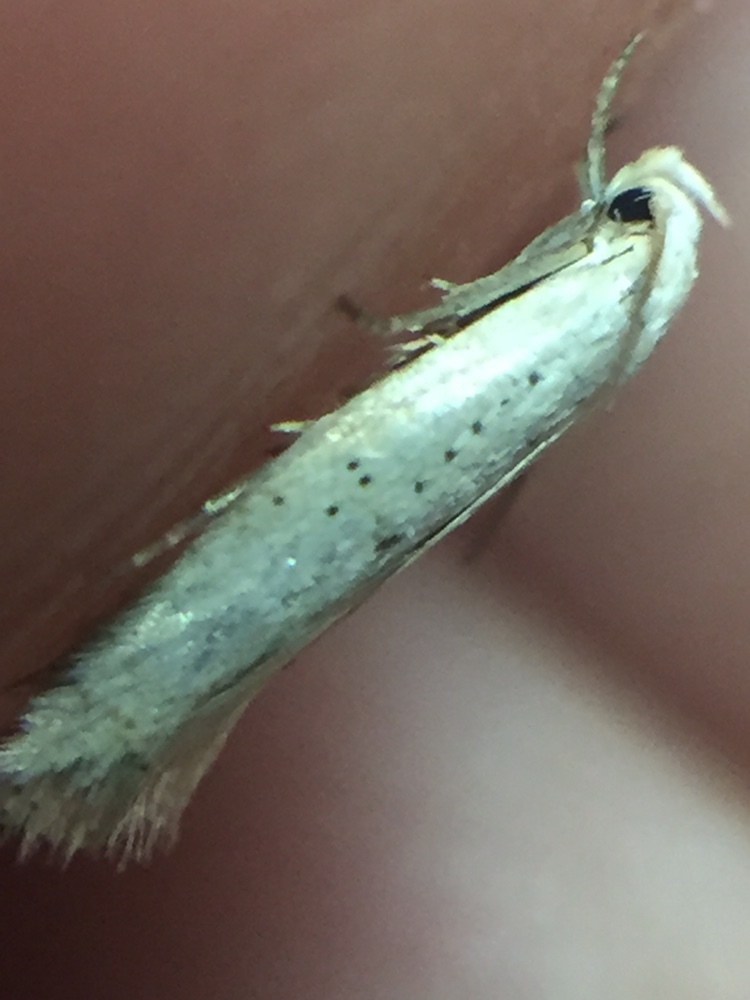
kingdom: Animalia
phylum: Arthropoda
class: Insecta
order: Lepidoptera
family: Elachistidae
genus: Elachista
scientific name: Elachista gerasmia
